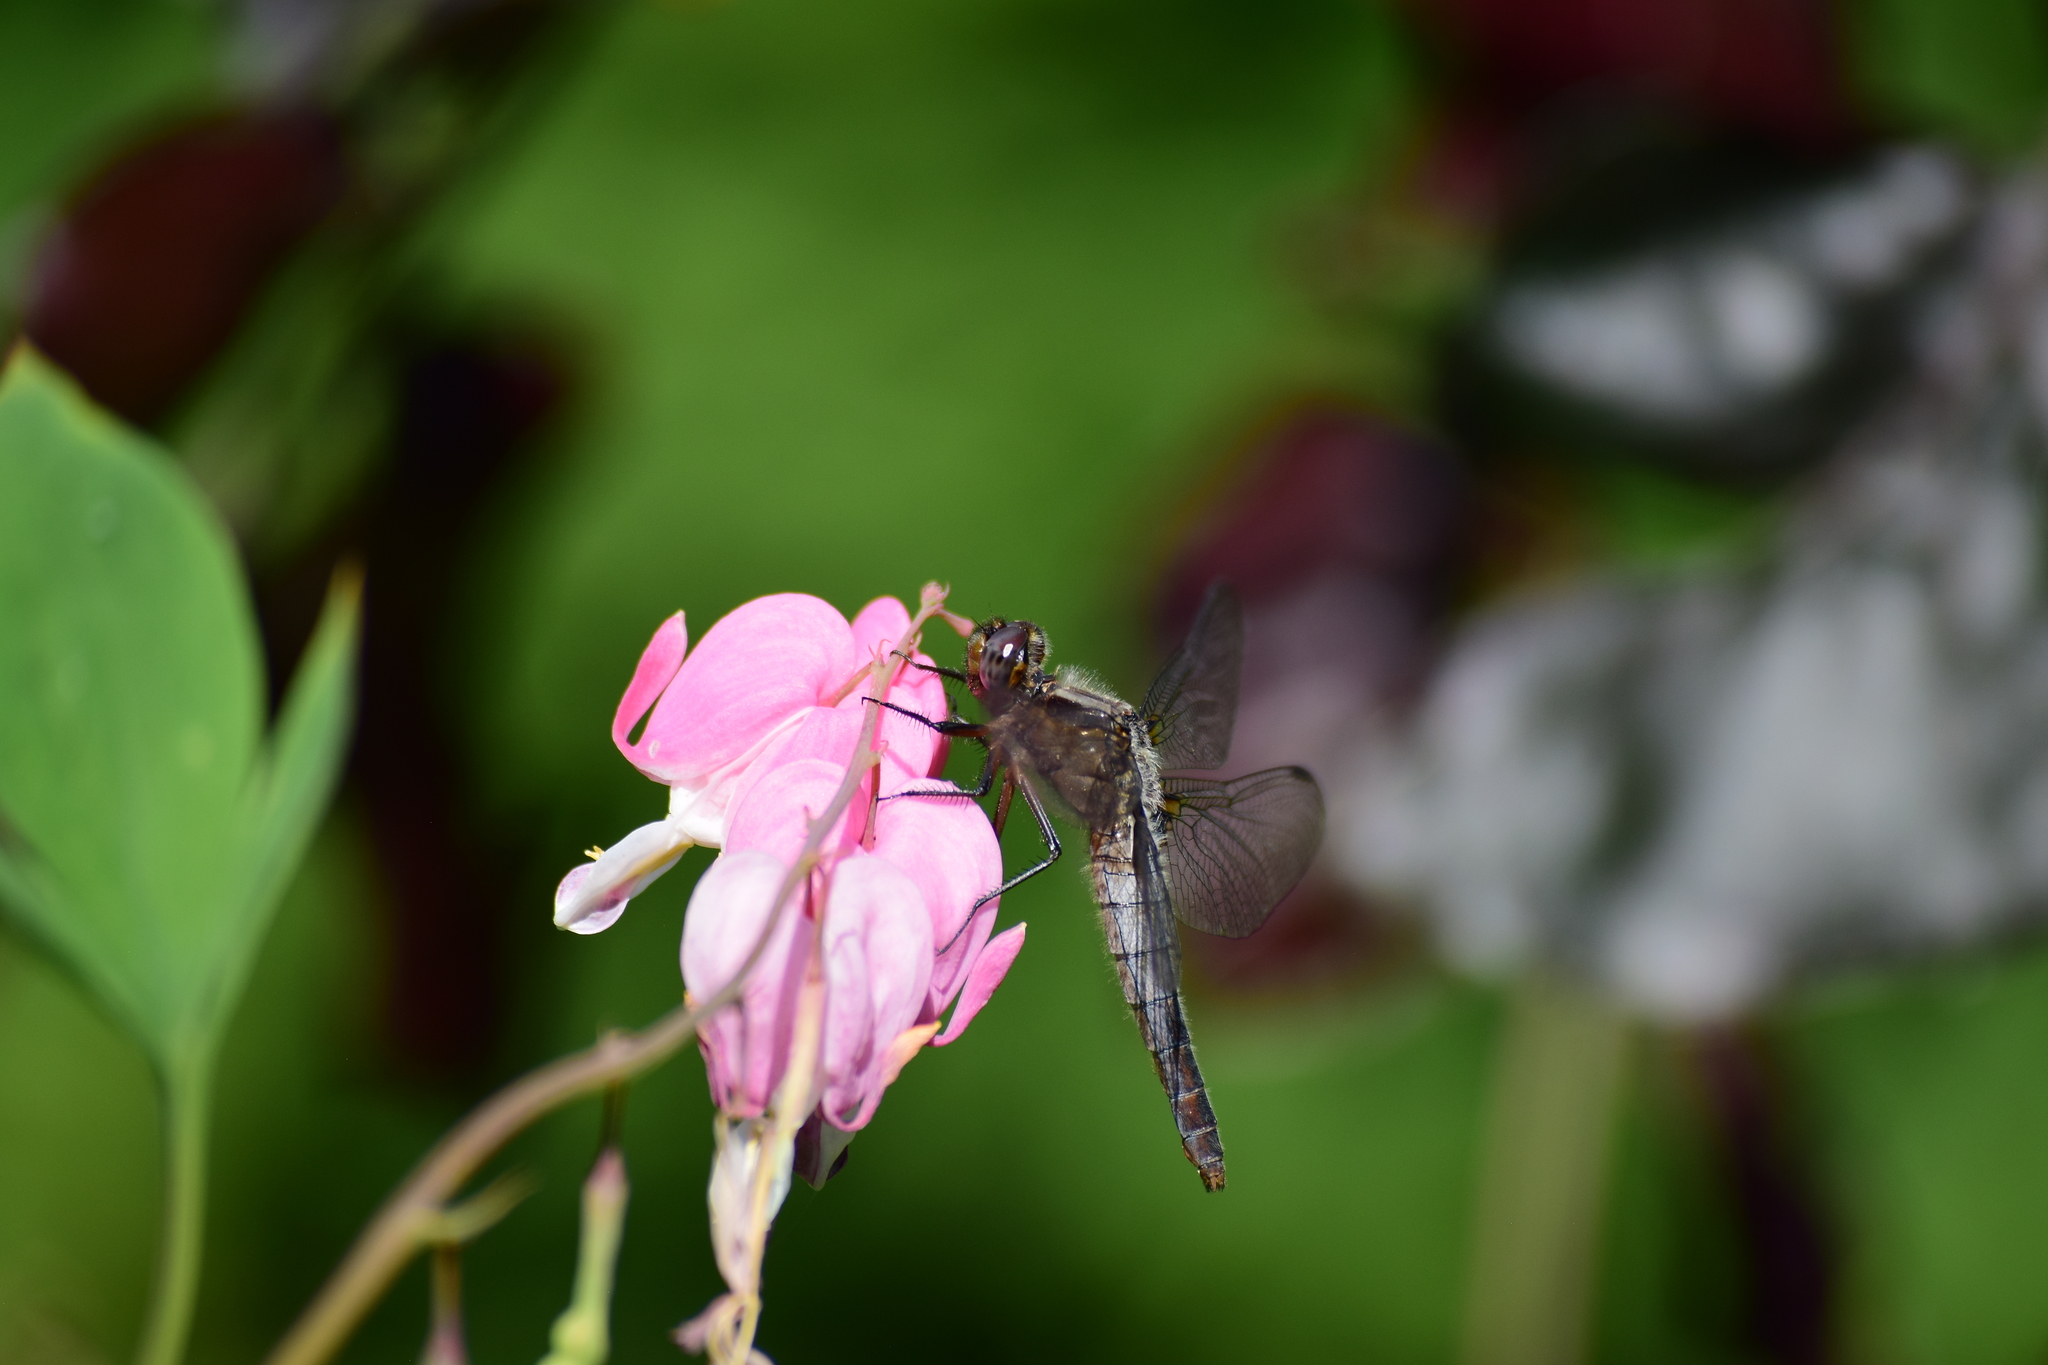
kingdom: Animalia
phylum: Arthropoda
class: Insecta
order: Odonata
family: Libellulidae
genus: Ladona
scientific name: Ladona julia
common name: Chalk-fronted corporal
